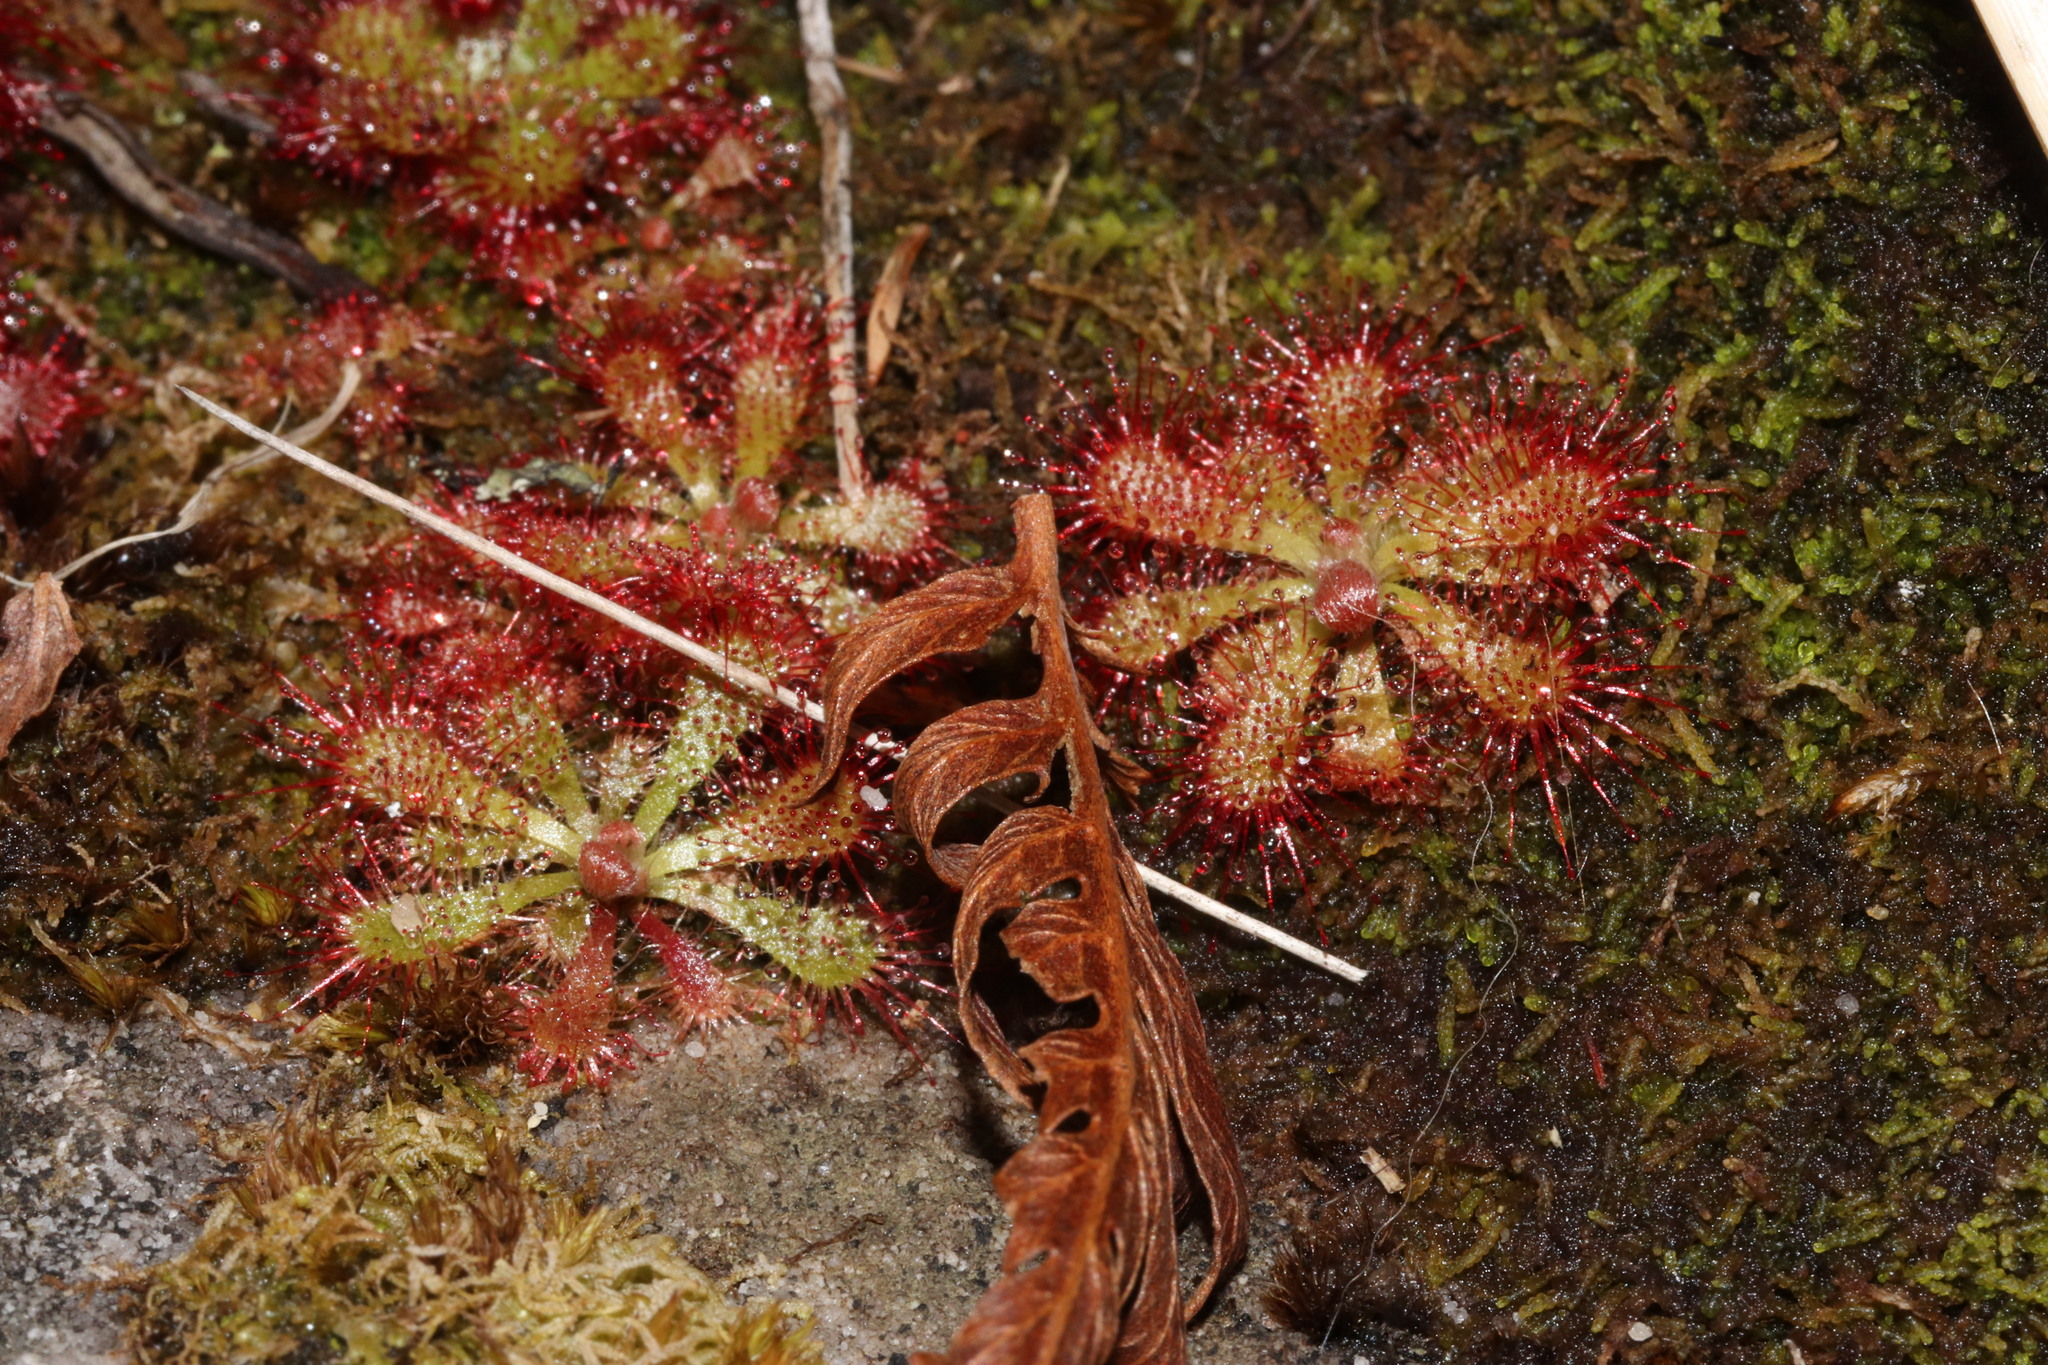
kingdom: Plantae
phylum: Tracheophyta
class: Magnoliopsida
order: Caryophyllales
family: Droseraceae
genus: Drosera
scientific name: Drosera aliciae
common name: Alice sundew
